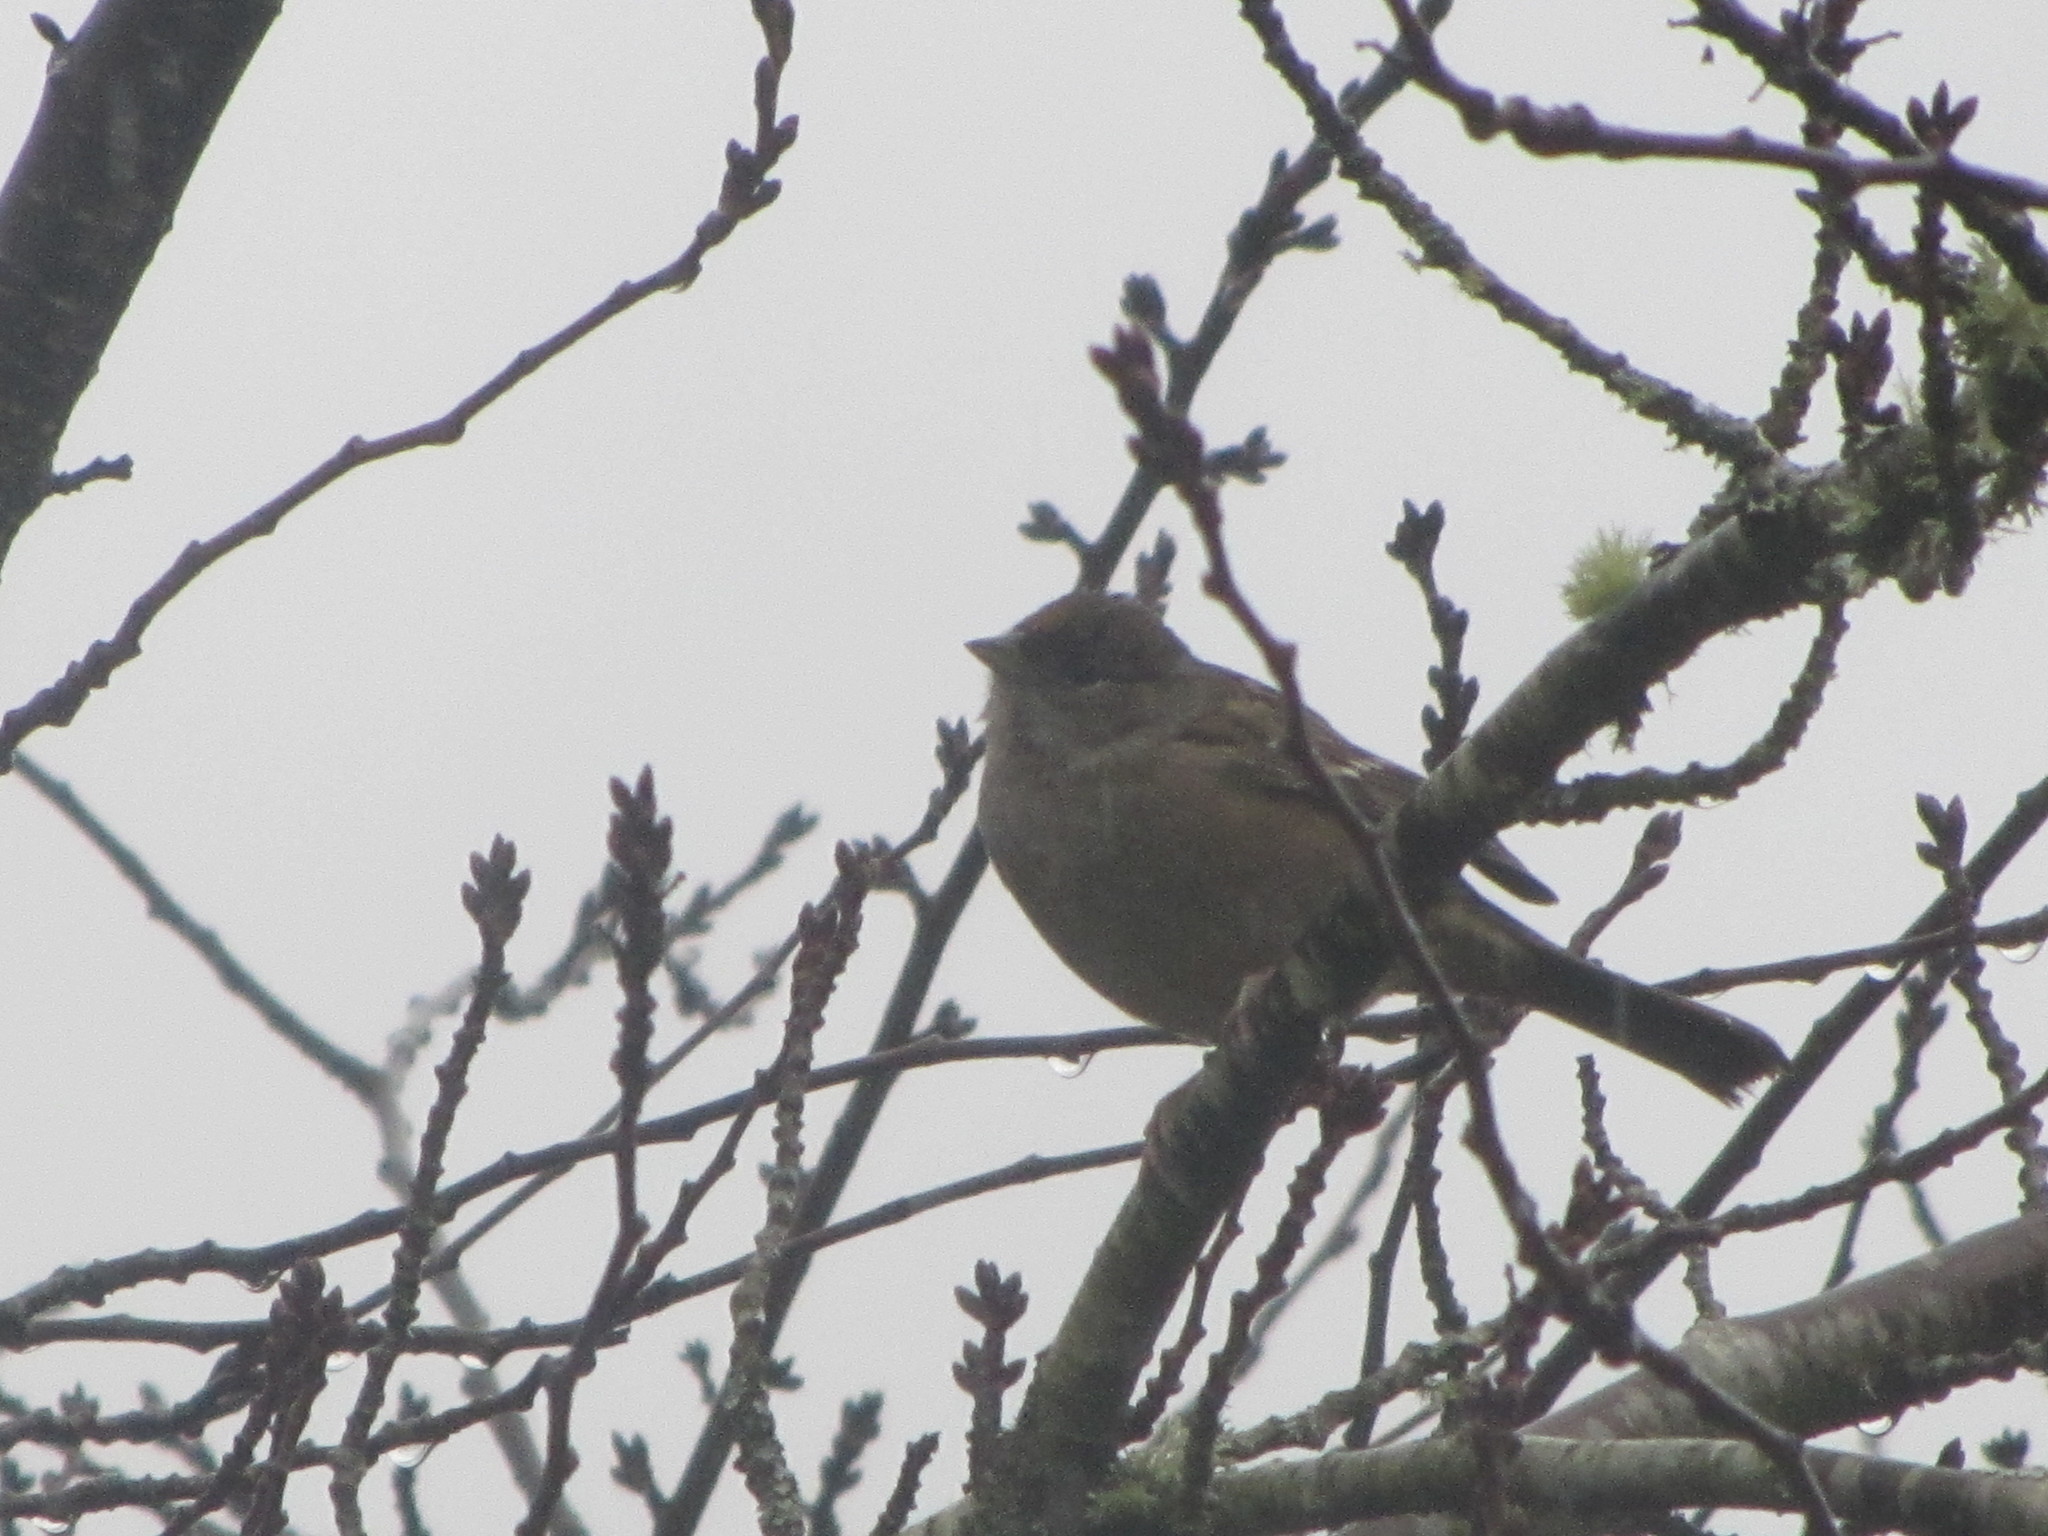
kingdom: Animalia
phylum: Chordata
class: Aves
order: Passeriformes
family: Passerellidae
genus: Zonotrichia
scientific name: Zonotrichia atricapilla
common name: Golden-crowned sparrow
